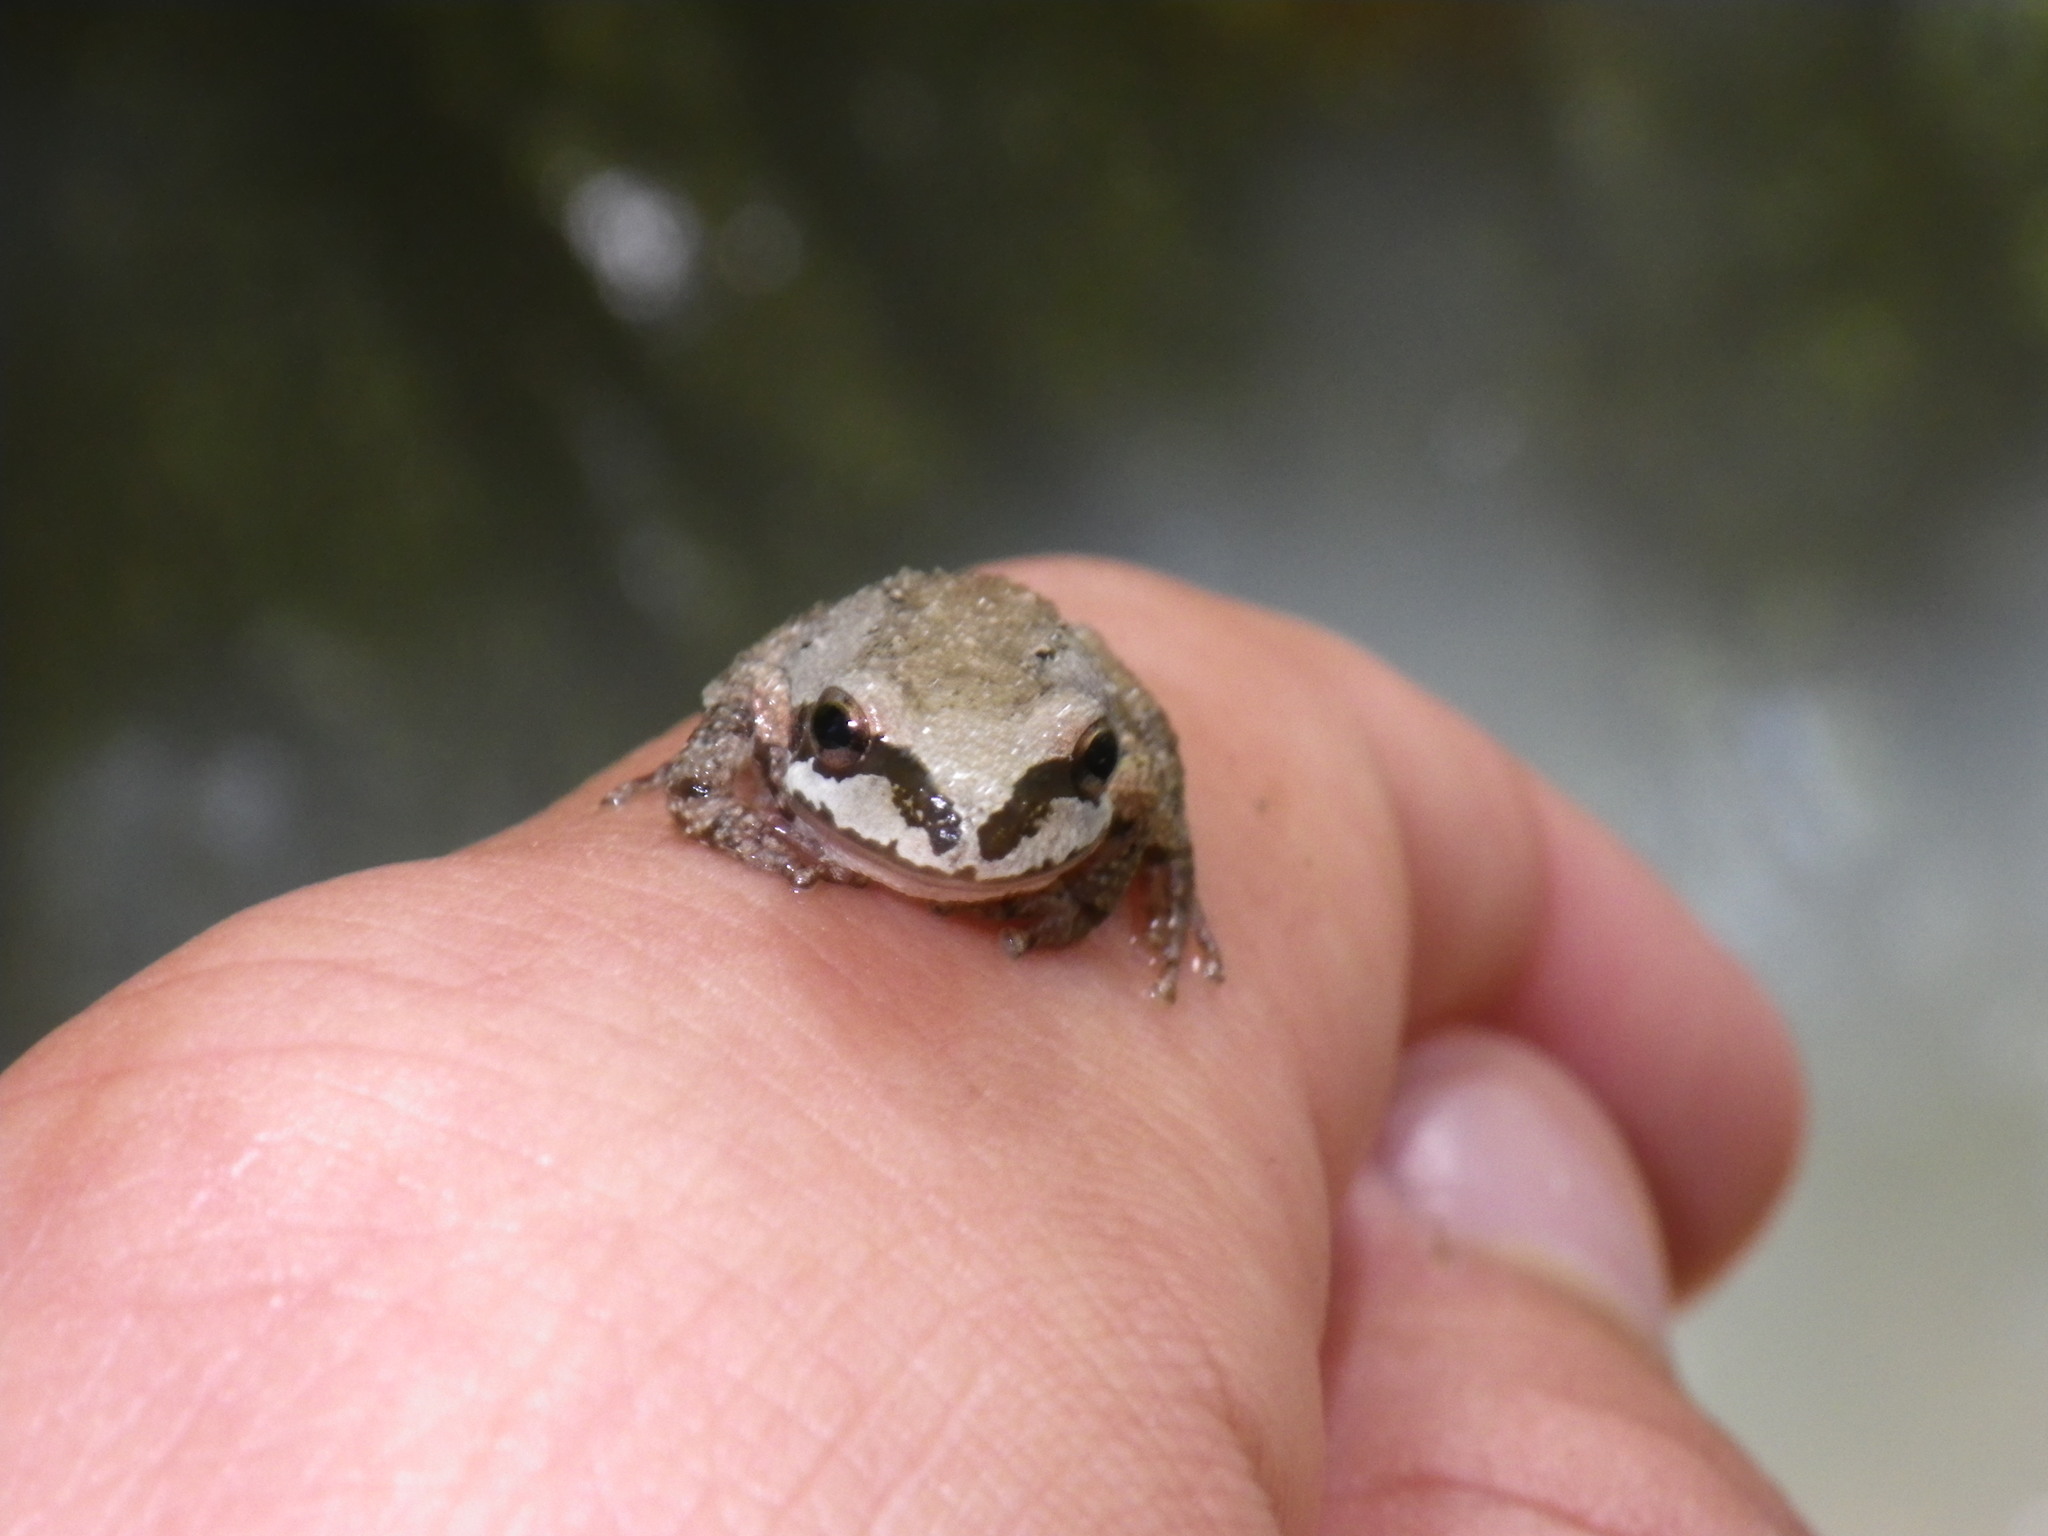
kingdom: Animalia
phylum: Chordata
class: Amphibia
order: Anura
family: Hylidae
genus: Pseudacris
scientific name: Pseudacris regilla
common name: Pacific chorus frog
